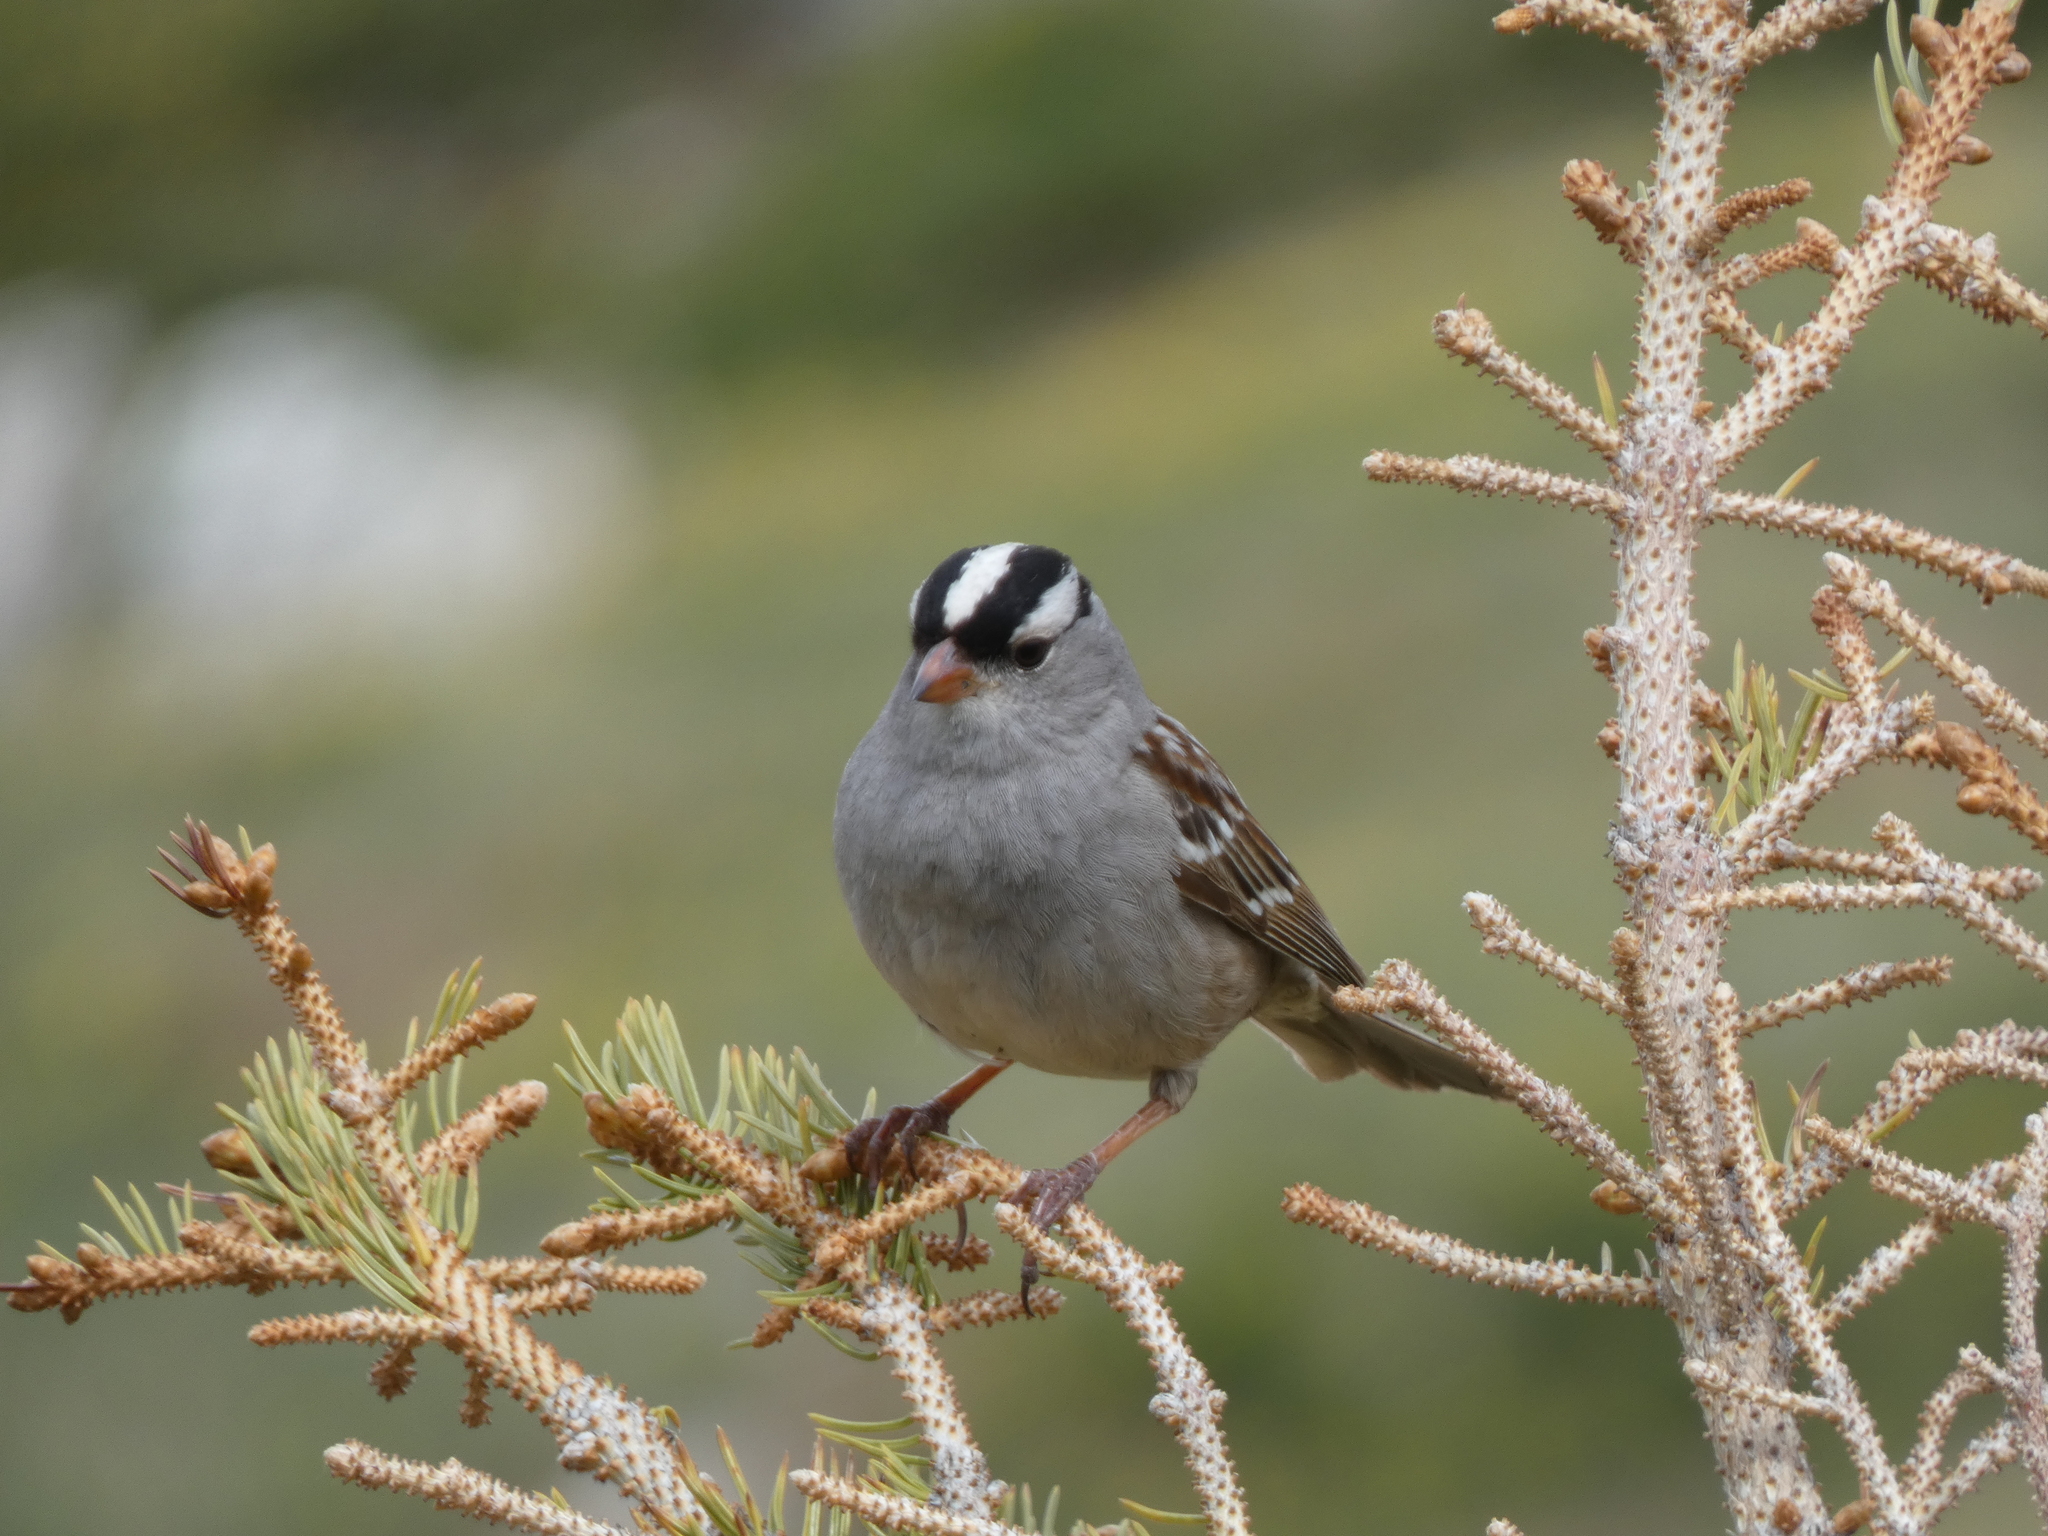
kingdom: Animalia
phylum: Chordata
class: Aves
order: Passeriformes
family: Passerellidae
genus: Zonotrichia
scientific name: Zonotrichia leucophrys
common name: White-crowned sparrow
